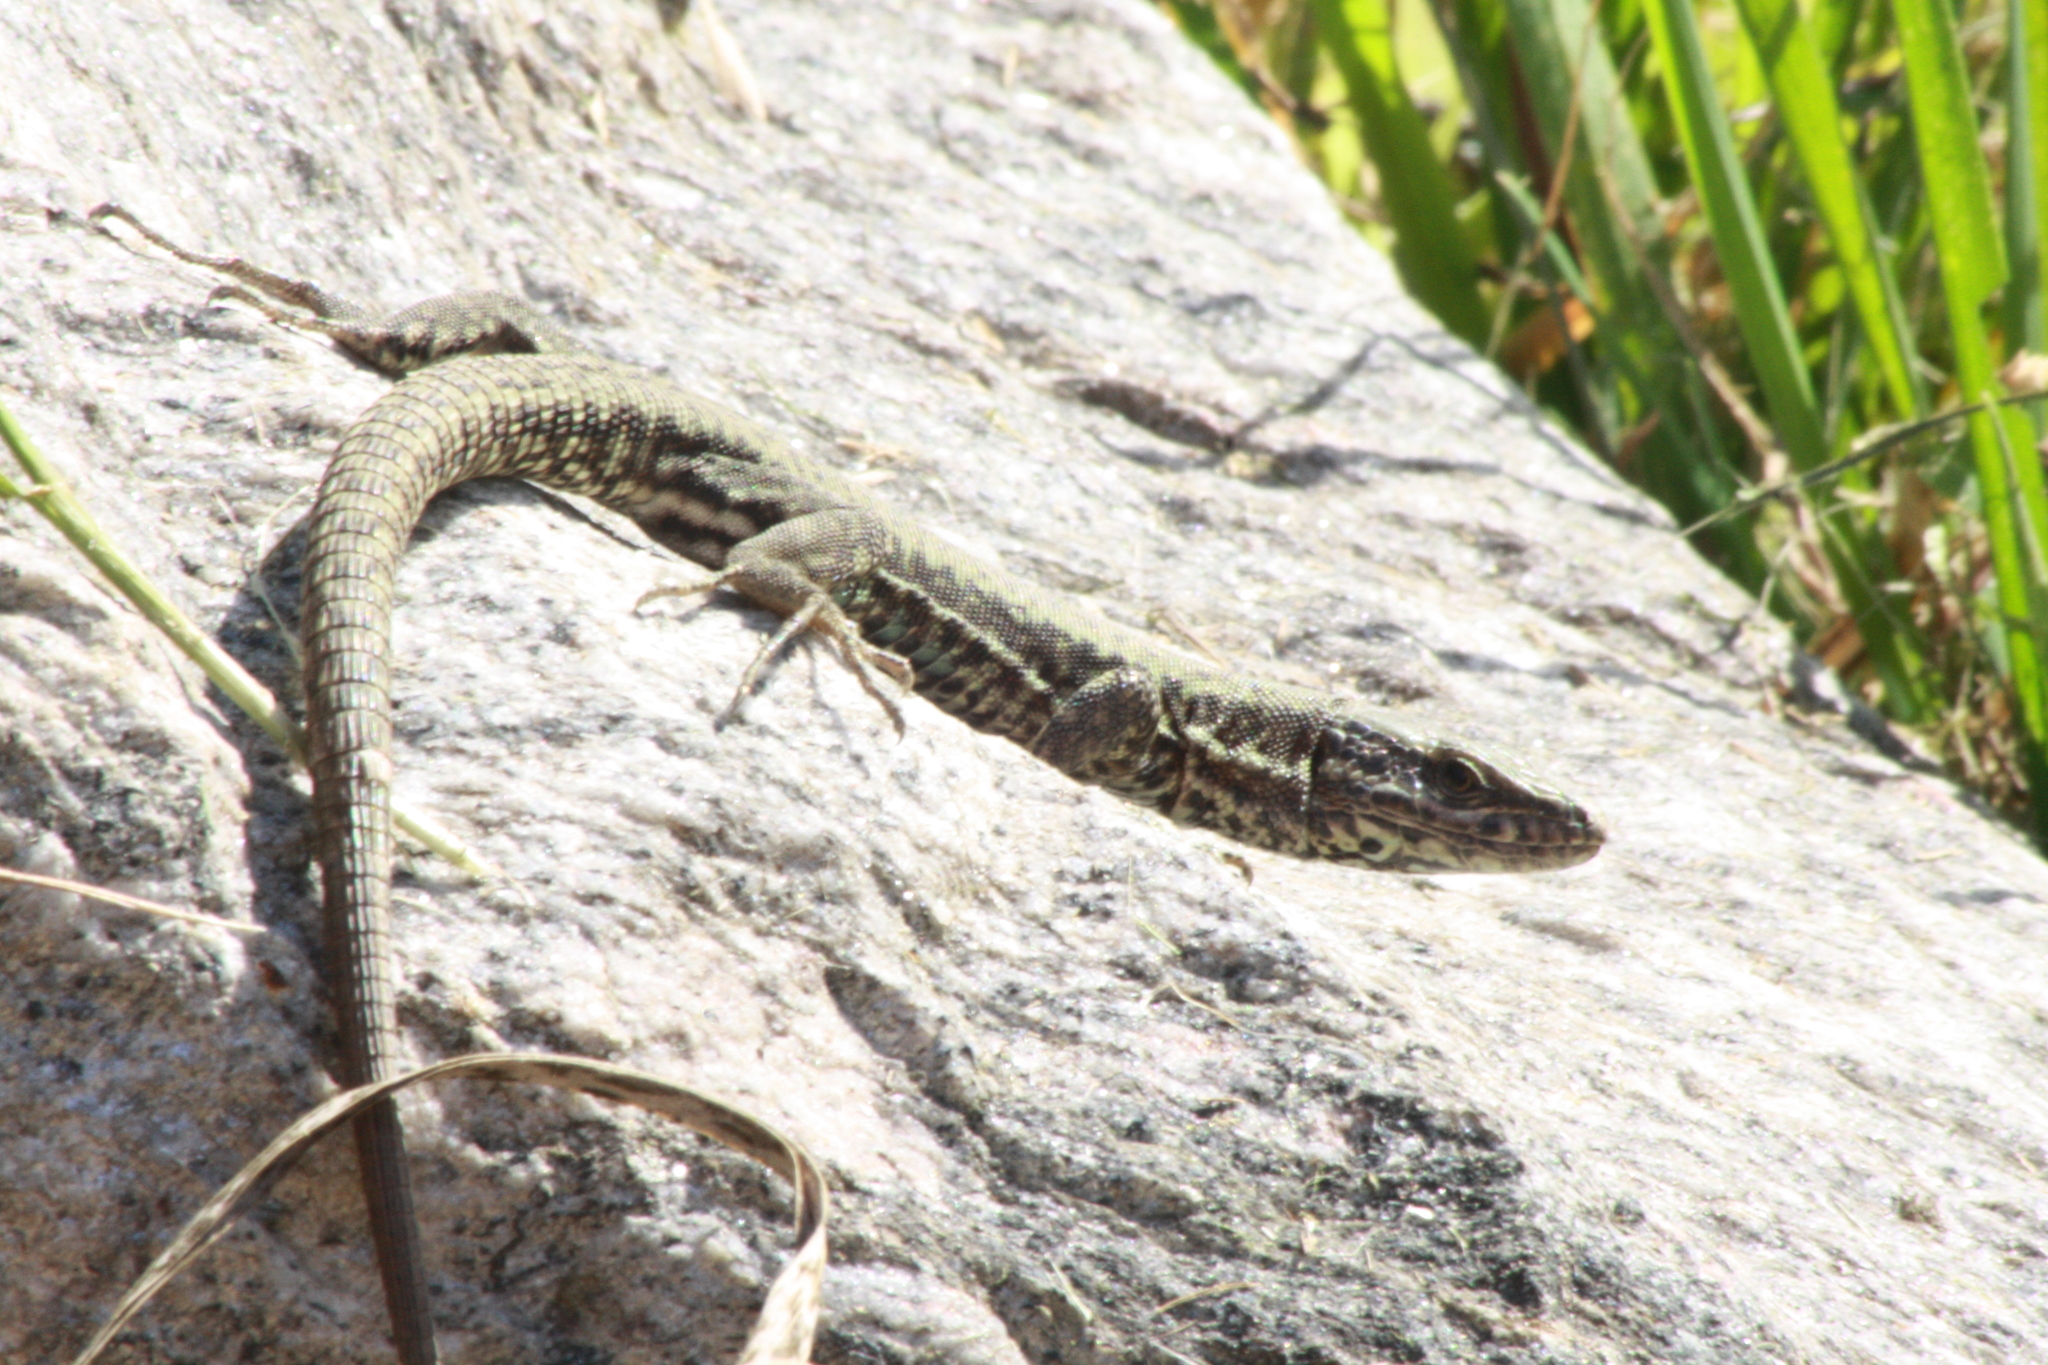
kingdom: Animalia
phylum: Chordata
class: Squamata
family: Lacertidae
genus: Podarcis
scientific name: Podarcis muralis
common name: Common wall lizard
